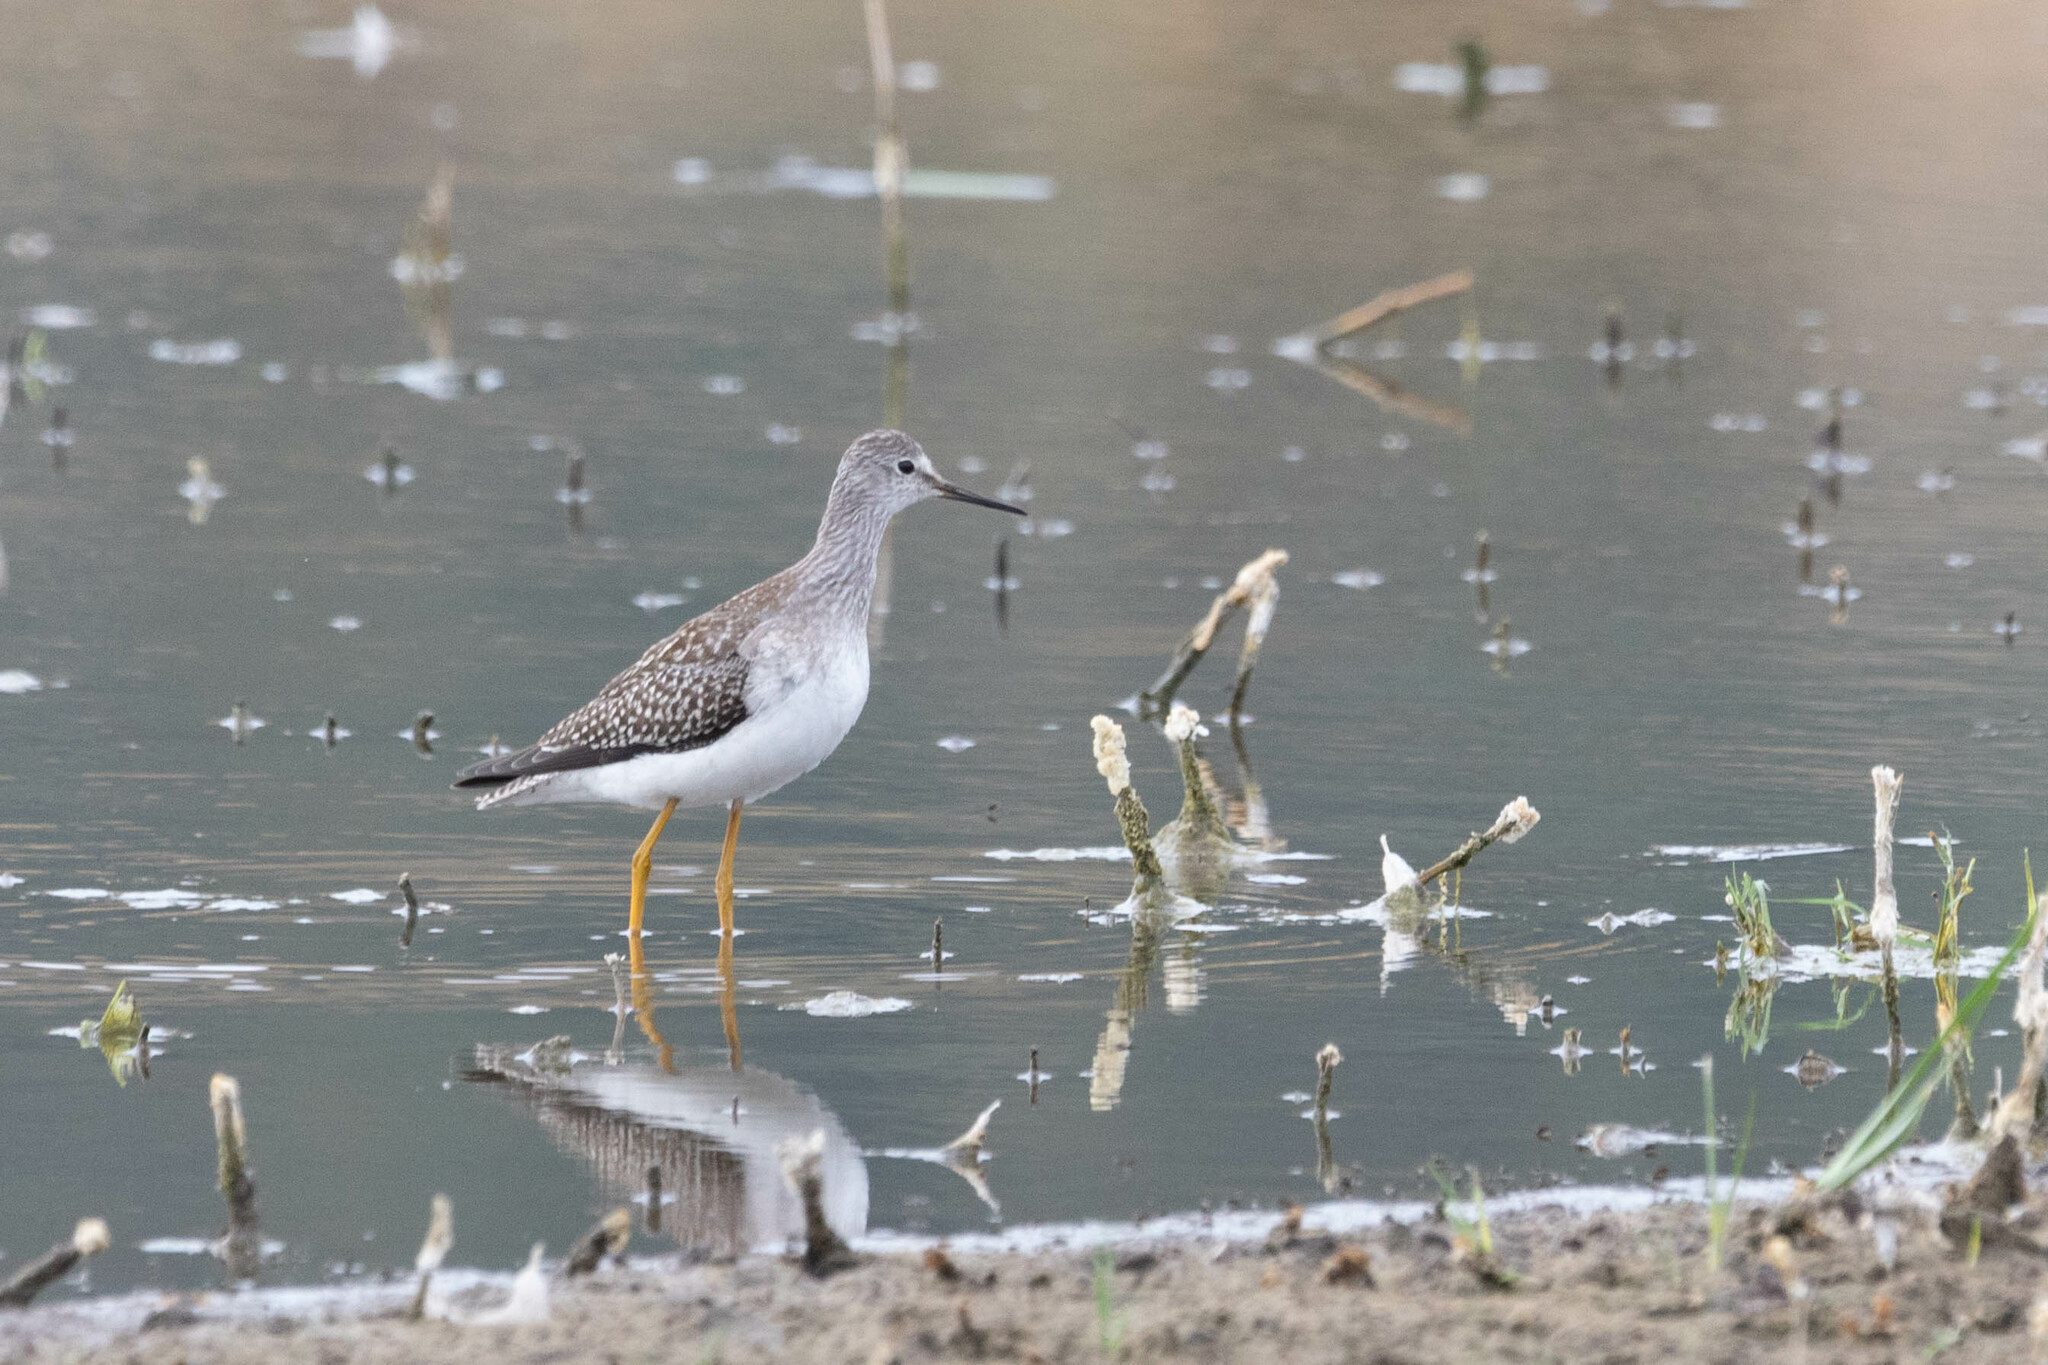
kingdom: Animalia
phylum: Chordata
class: Aves
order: Charadriiformes
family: Scolopacidae
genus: Tringa
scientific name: Tringa flavipes
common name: Lesser yellowlegs
